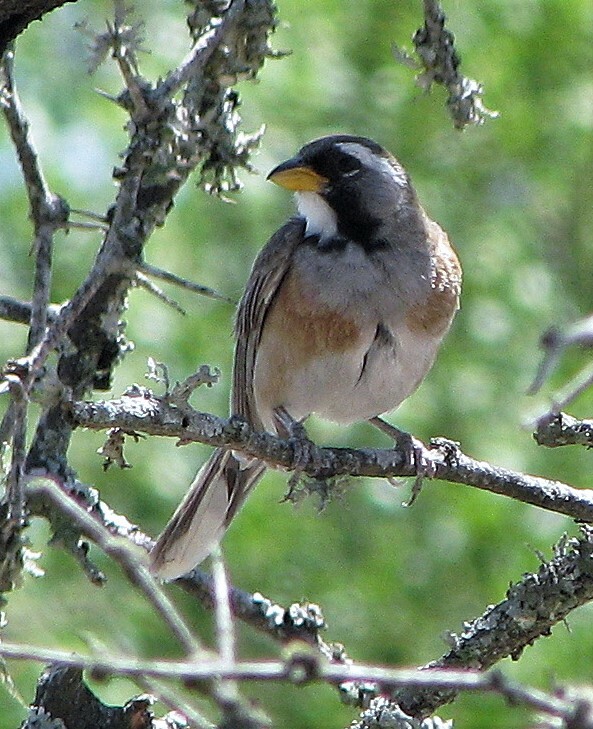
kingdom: Animalia
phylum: Chordata
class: Aves
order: Passeriformes
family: Thraupidae
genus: Saltatricula
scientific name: Saltatricula multicolor
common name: Many-colored chaco finch
